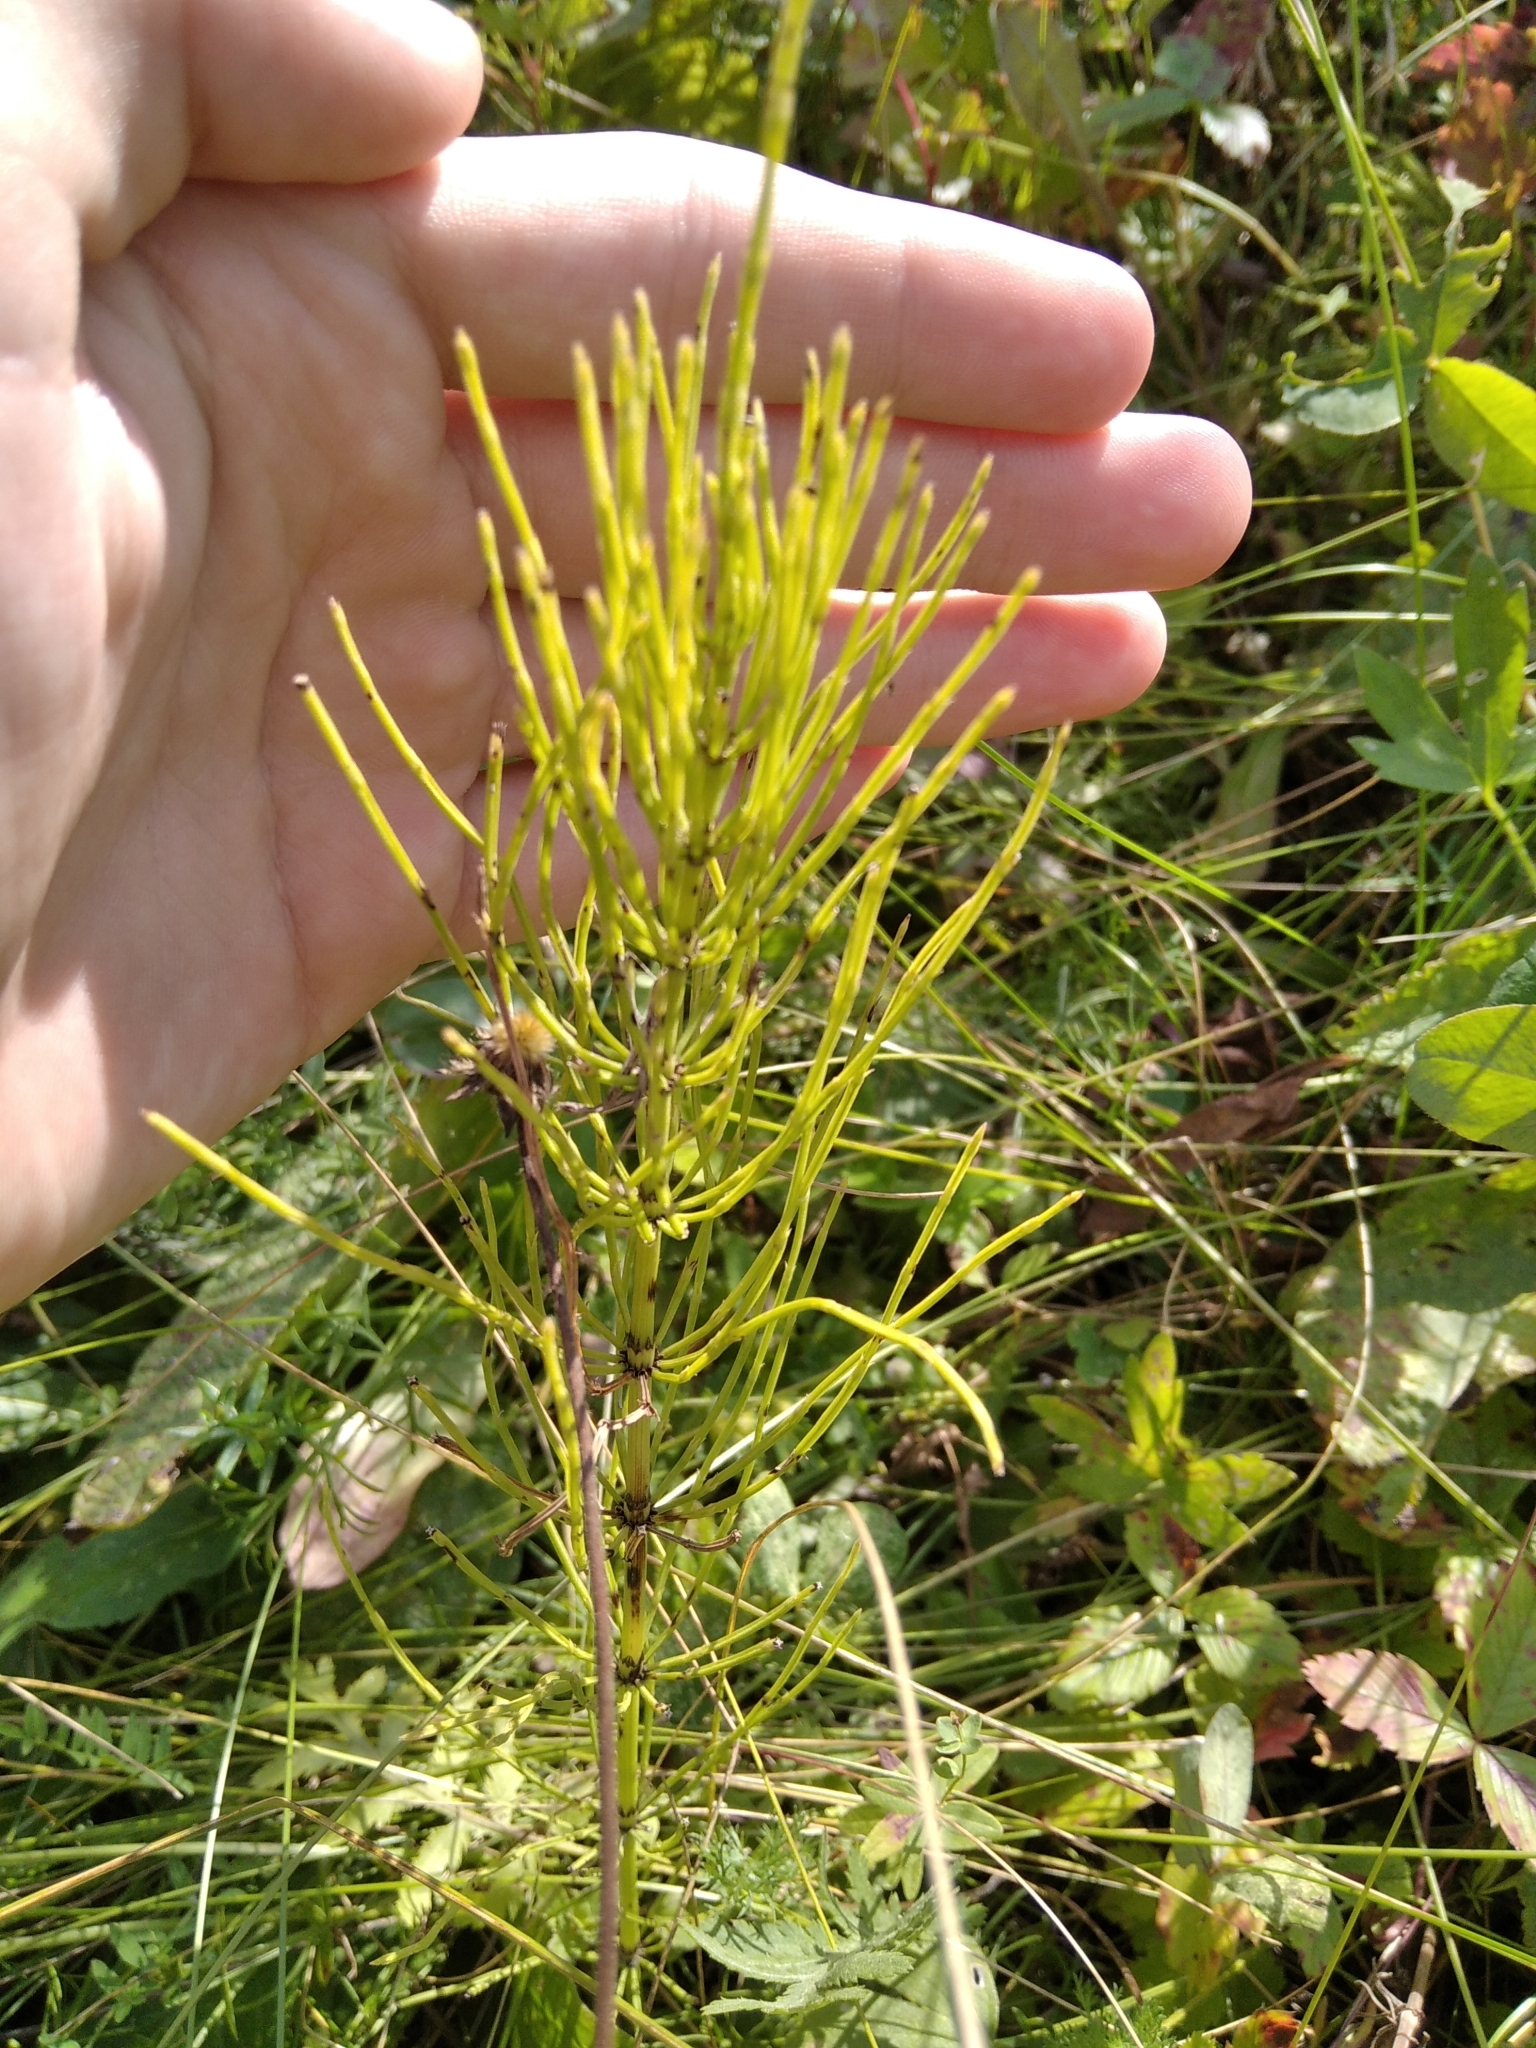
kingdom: Plantae
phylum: Tracheophyta
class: Polypodiopsida
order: Equisetales
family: Equisetaceae
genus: Equisetum
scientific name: Equisetum arvense
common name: Field horsetail
